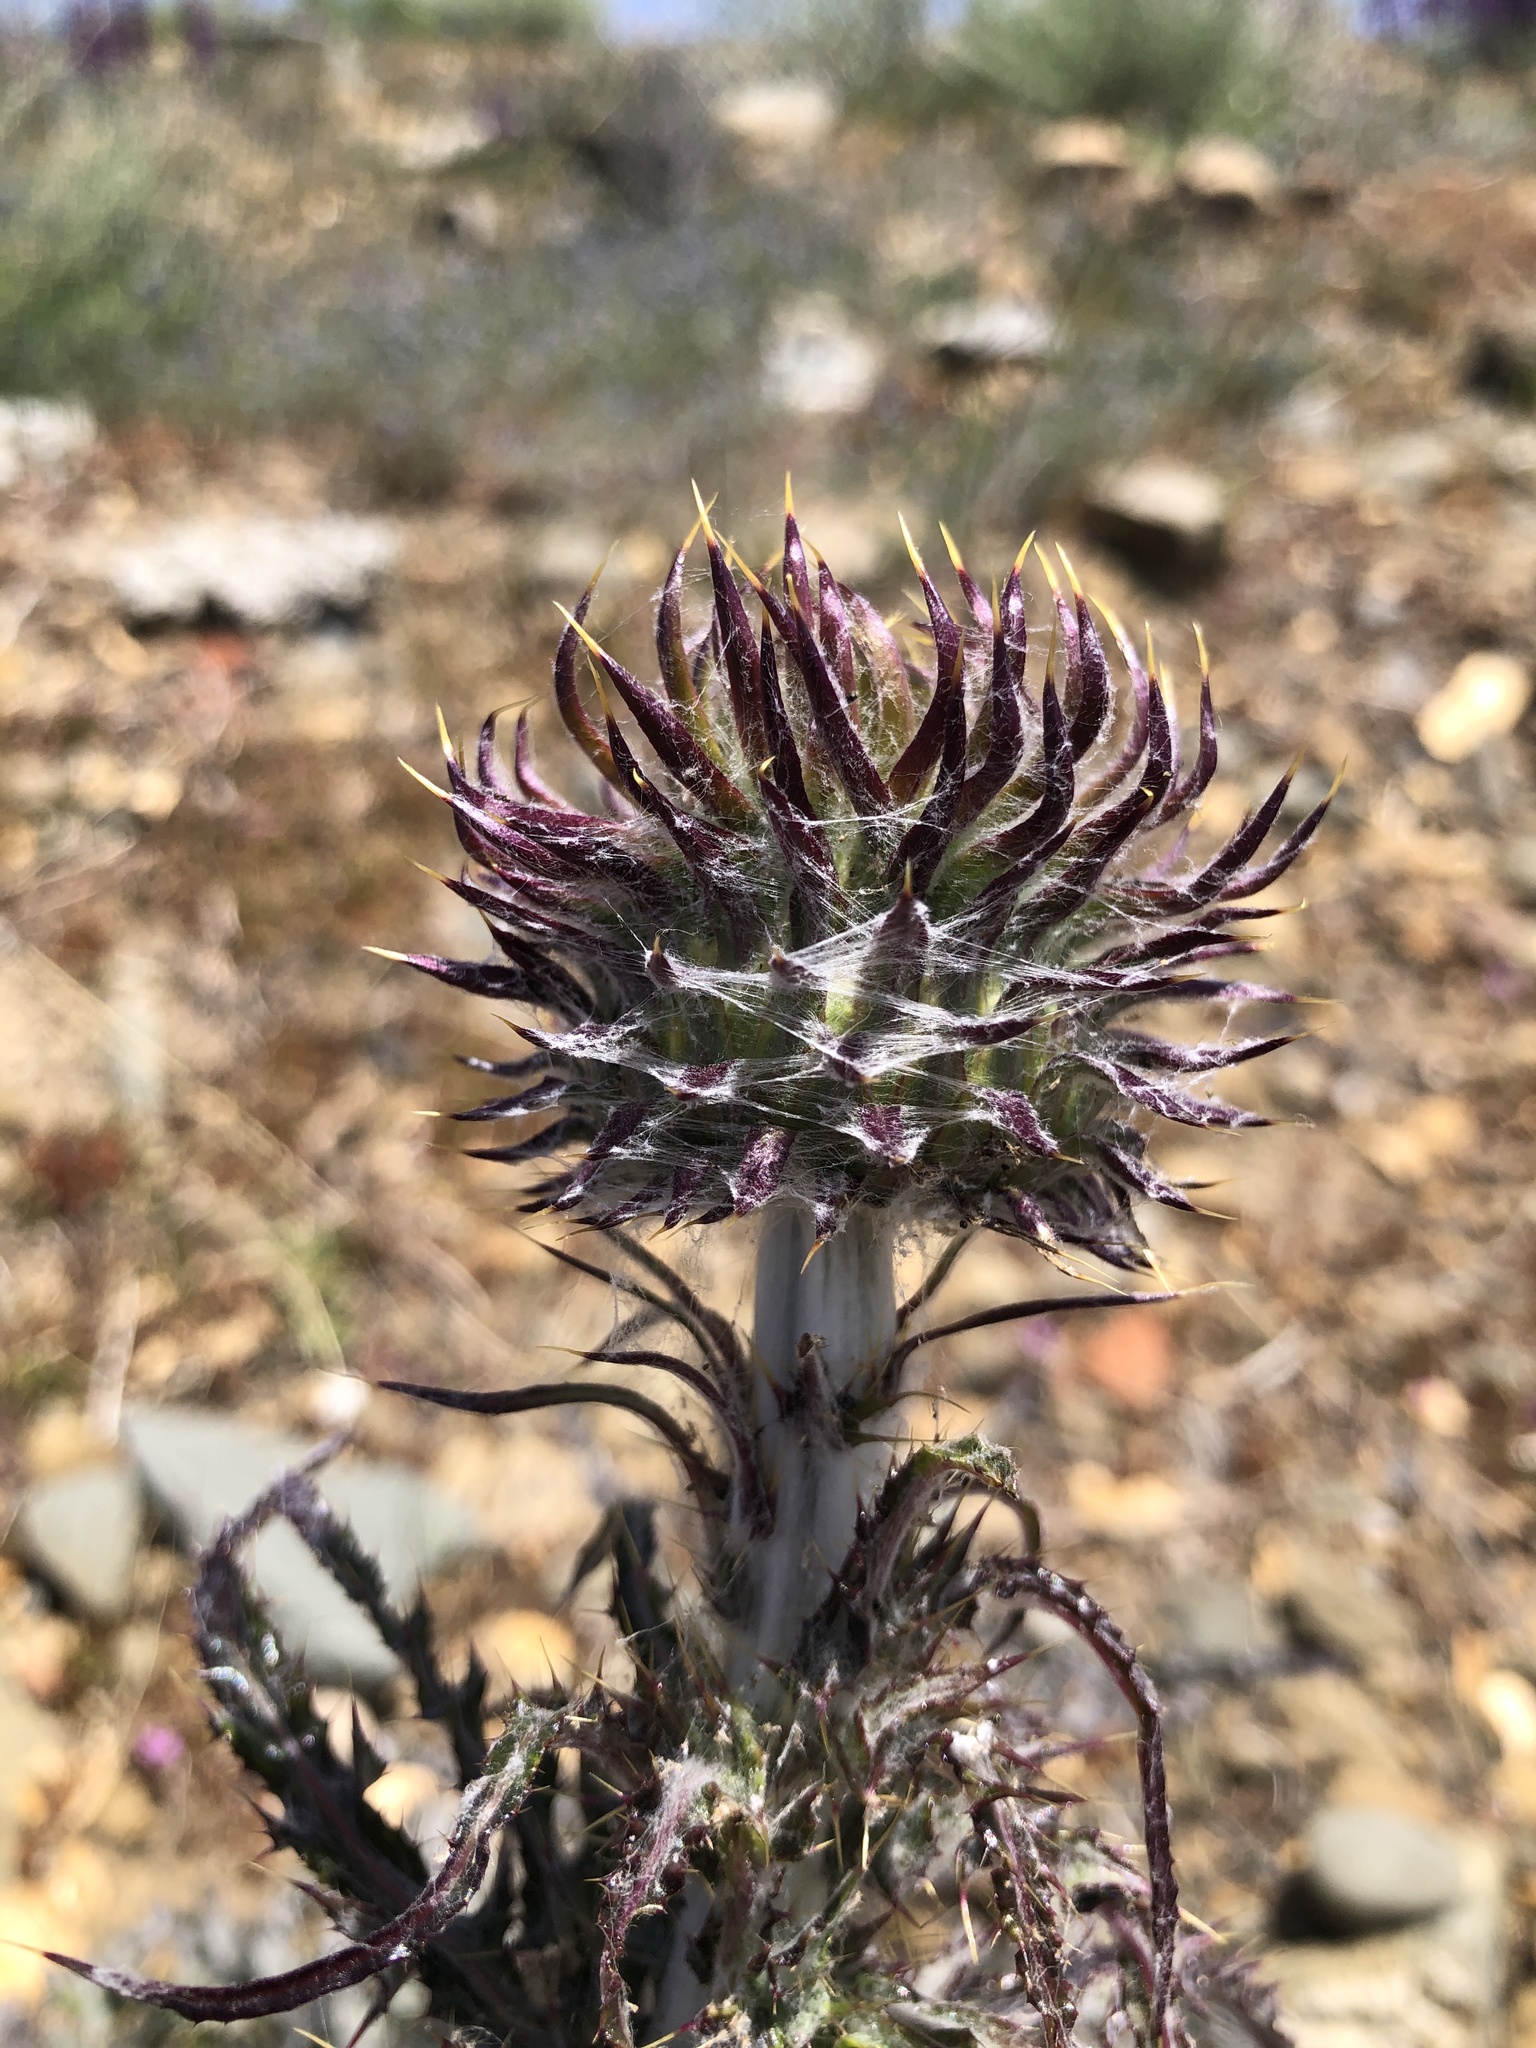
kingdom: Plantae
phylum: Tracheophyta
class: Magnoliopsida
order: Asterales
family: Asteraceae
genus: Cirsium
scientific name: Cirsium occidentale
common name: Western thistle
